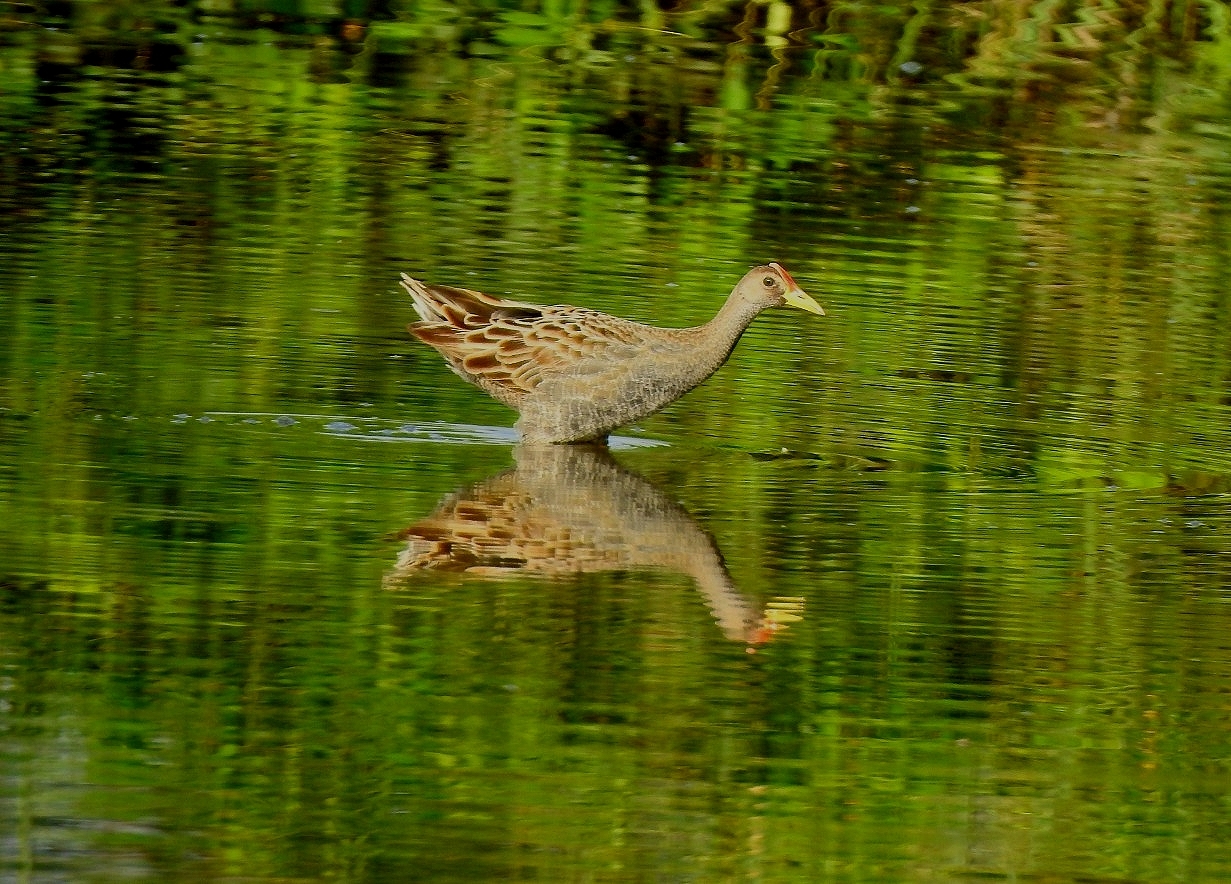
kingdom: Animalia
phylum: Chordata
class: Aves
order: Gruiformes
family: Rallidae
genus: Gallicrex
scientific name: Gallicrex cinerea
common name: Watercock
